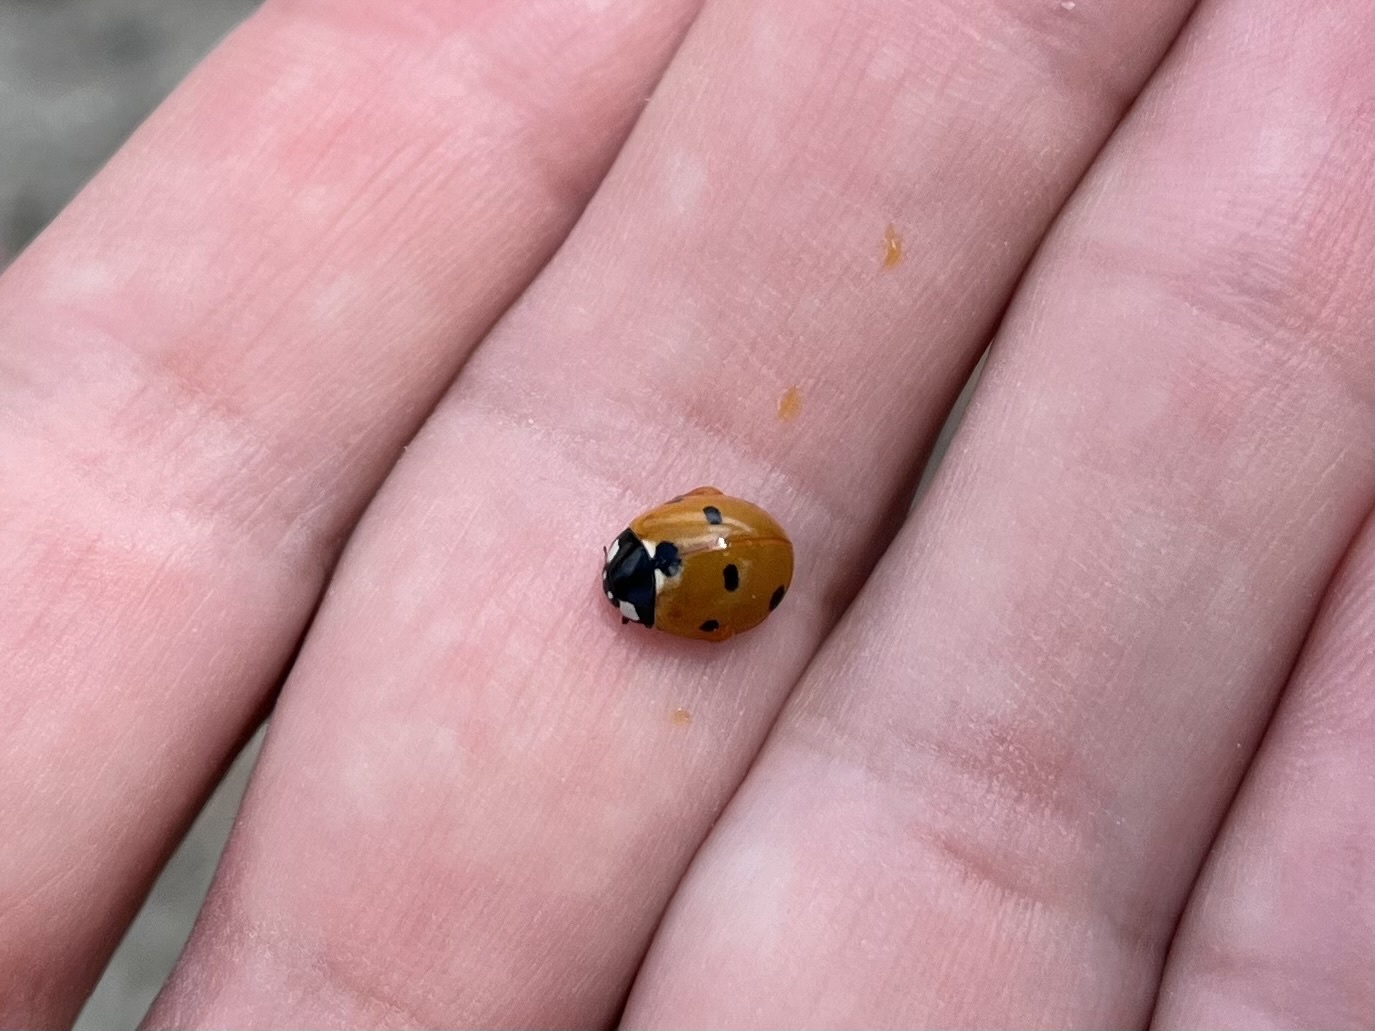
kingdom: Animalia
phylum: Arthropoda
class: Insecta
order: Coleoptera
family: Coccinellidae
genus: Coccinella
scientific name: Coccinella septempunctata
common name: Sevenspotted lady beetle
